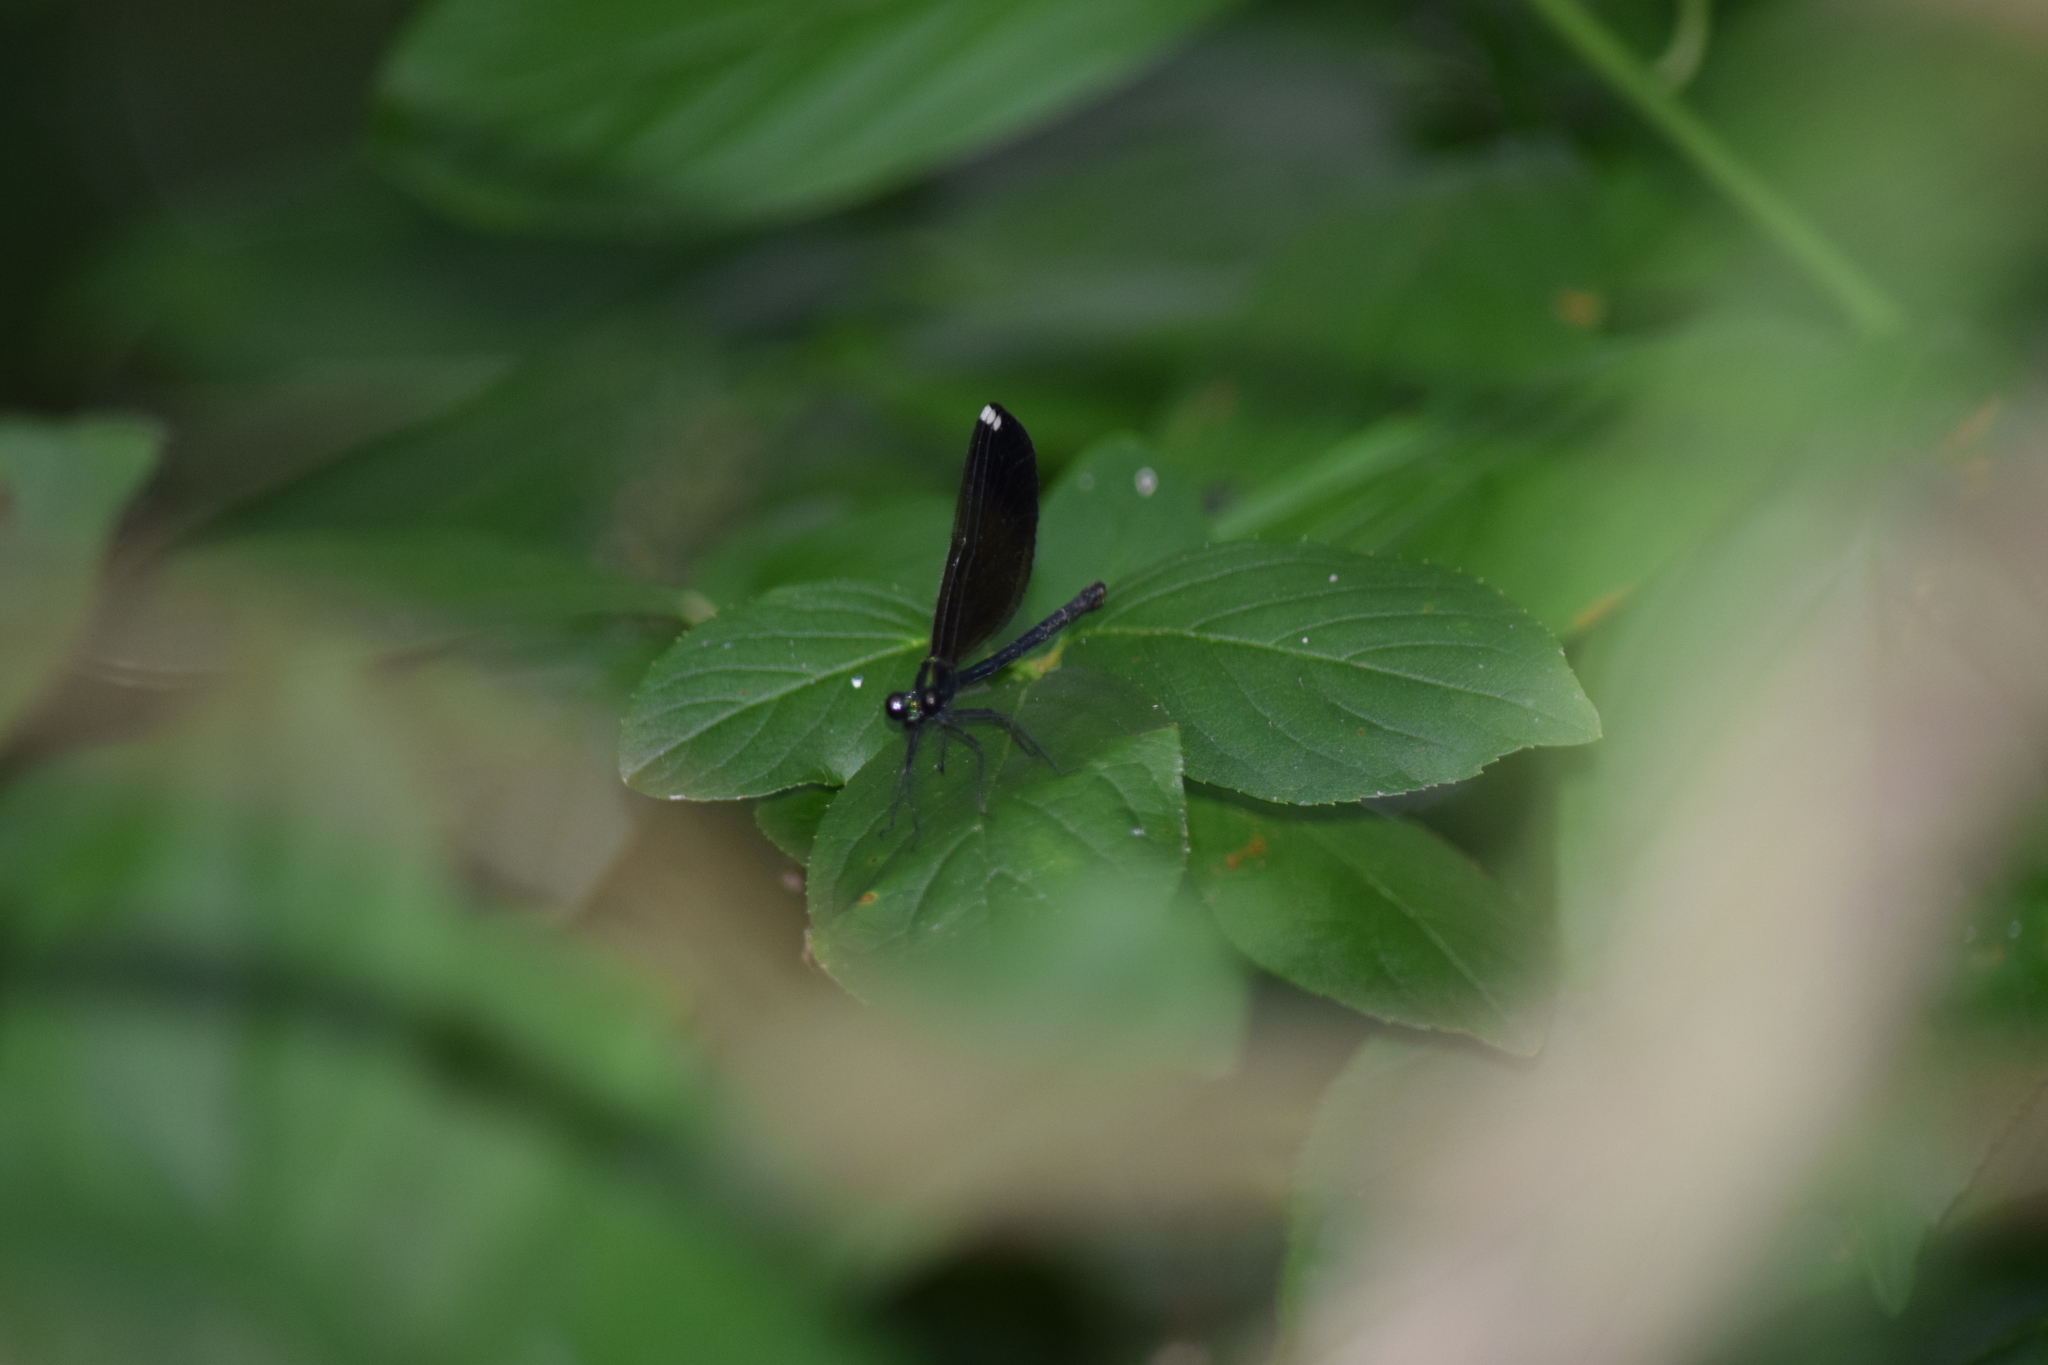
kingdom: Animalia
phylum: Arthropoda
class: Insecta
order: Odonata
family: Calopterygidae
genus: Calopteryx
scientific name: Calopteryx maculata
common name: Ebony jewelwing
